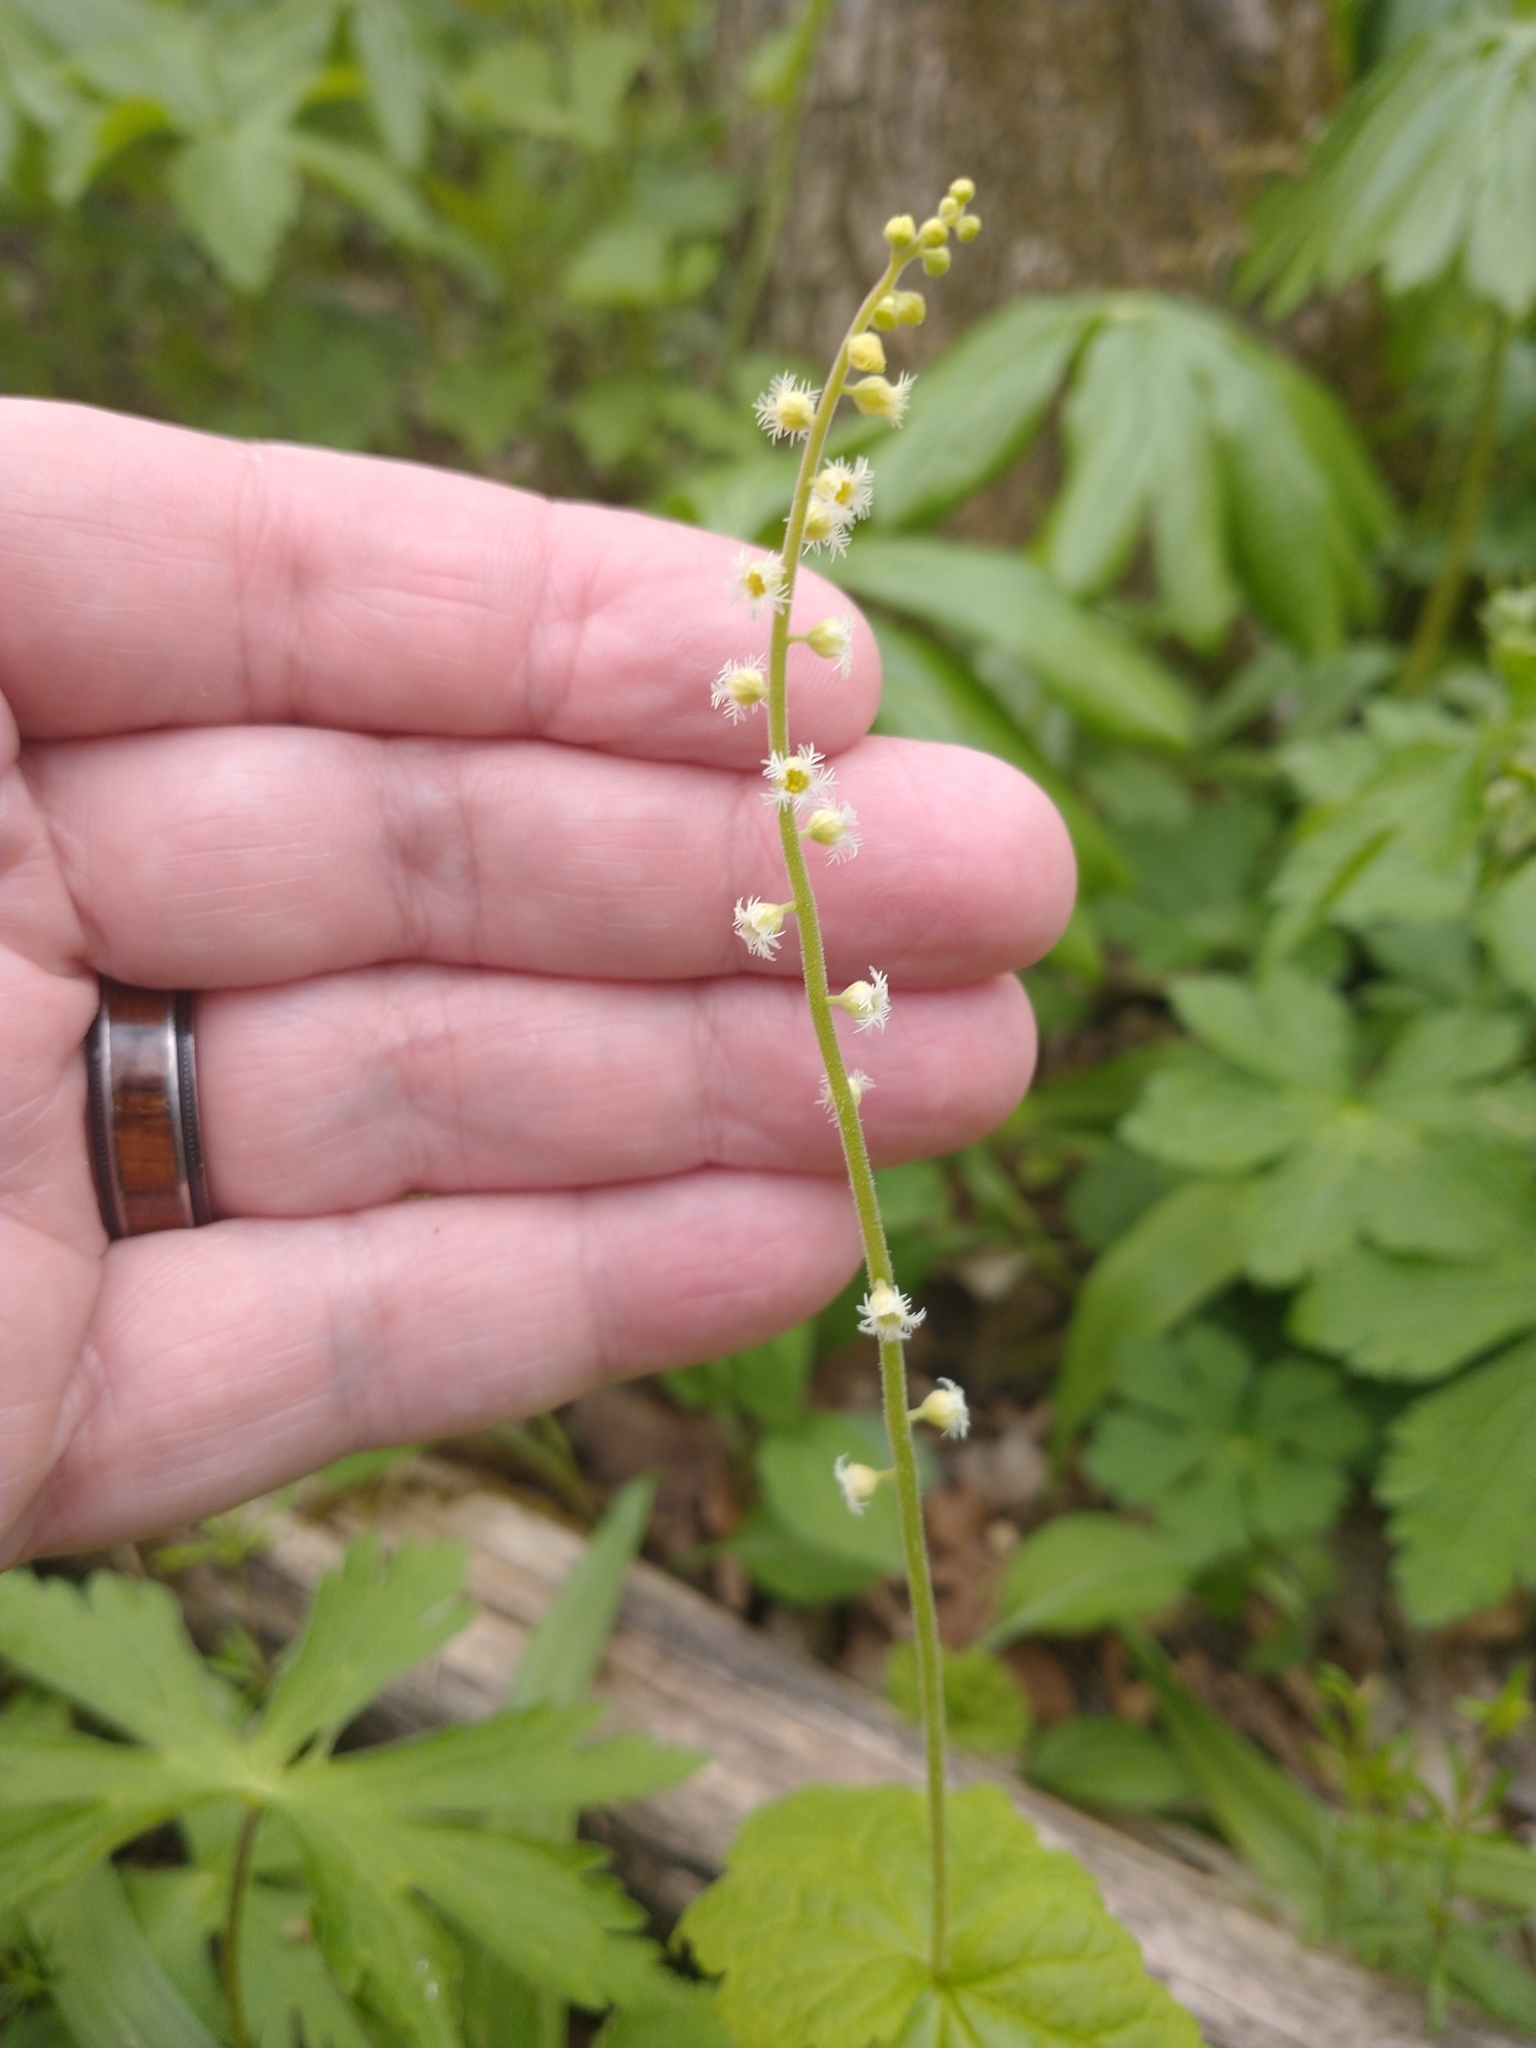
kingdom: Plantae
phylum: Tracheophyta
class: Magnoliopsida
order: Saxifragales
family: Saxifragaceae
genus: Mitella
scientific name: Mitella diphylla
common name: Coolwort
